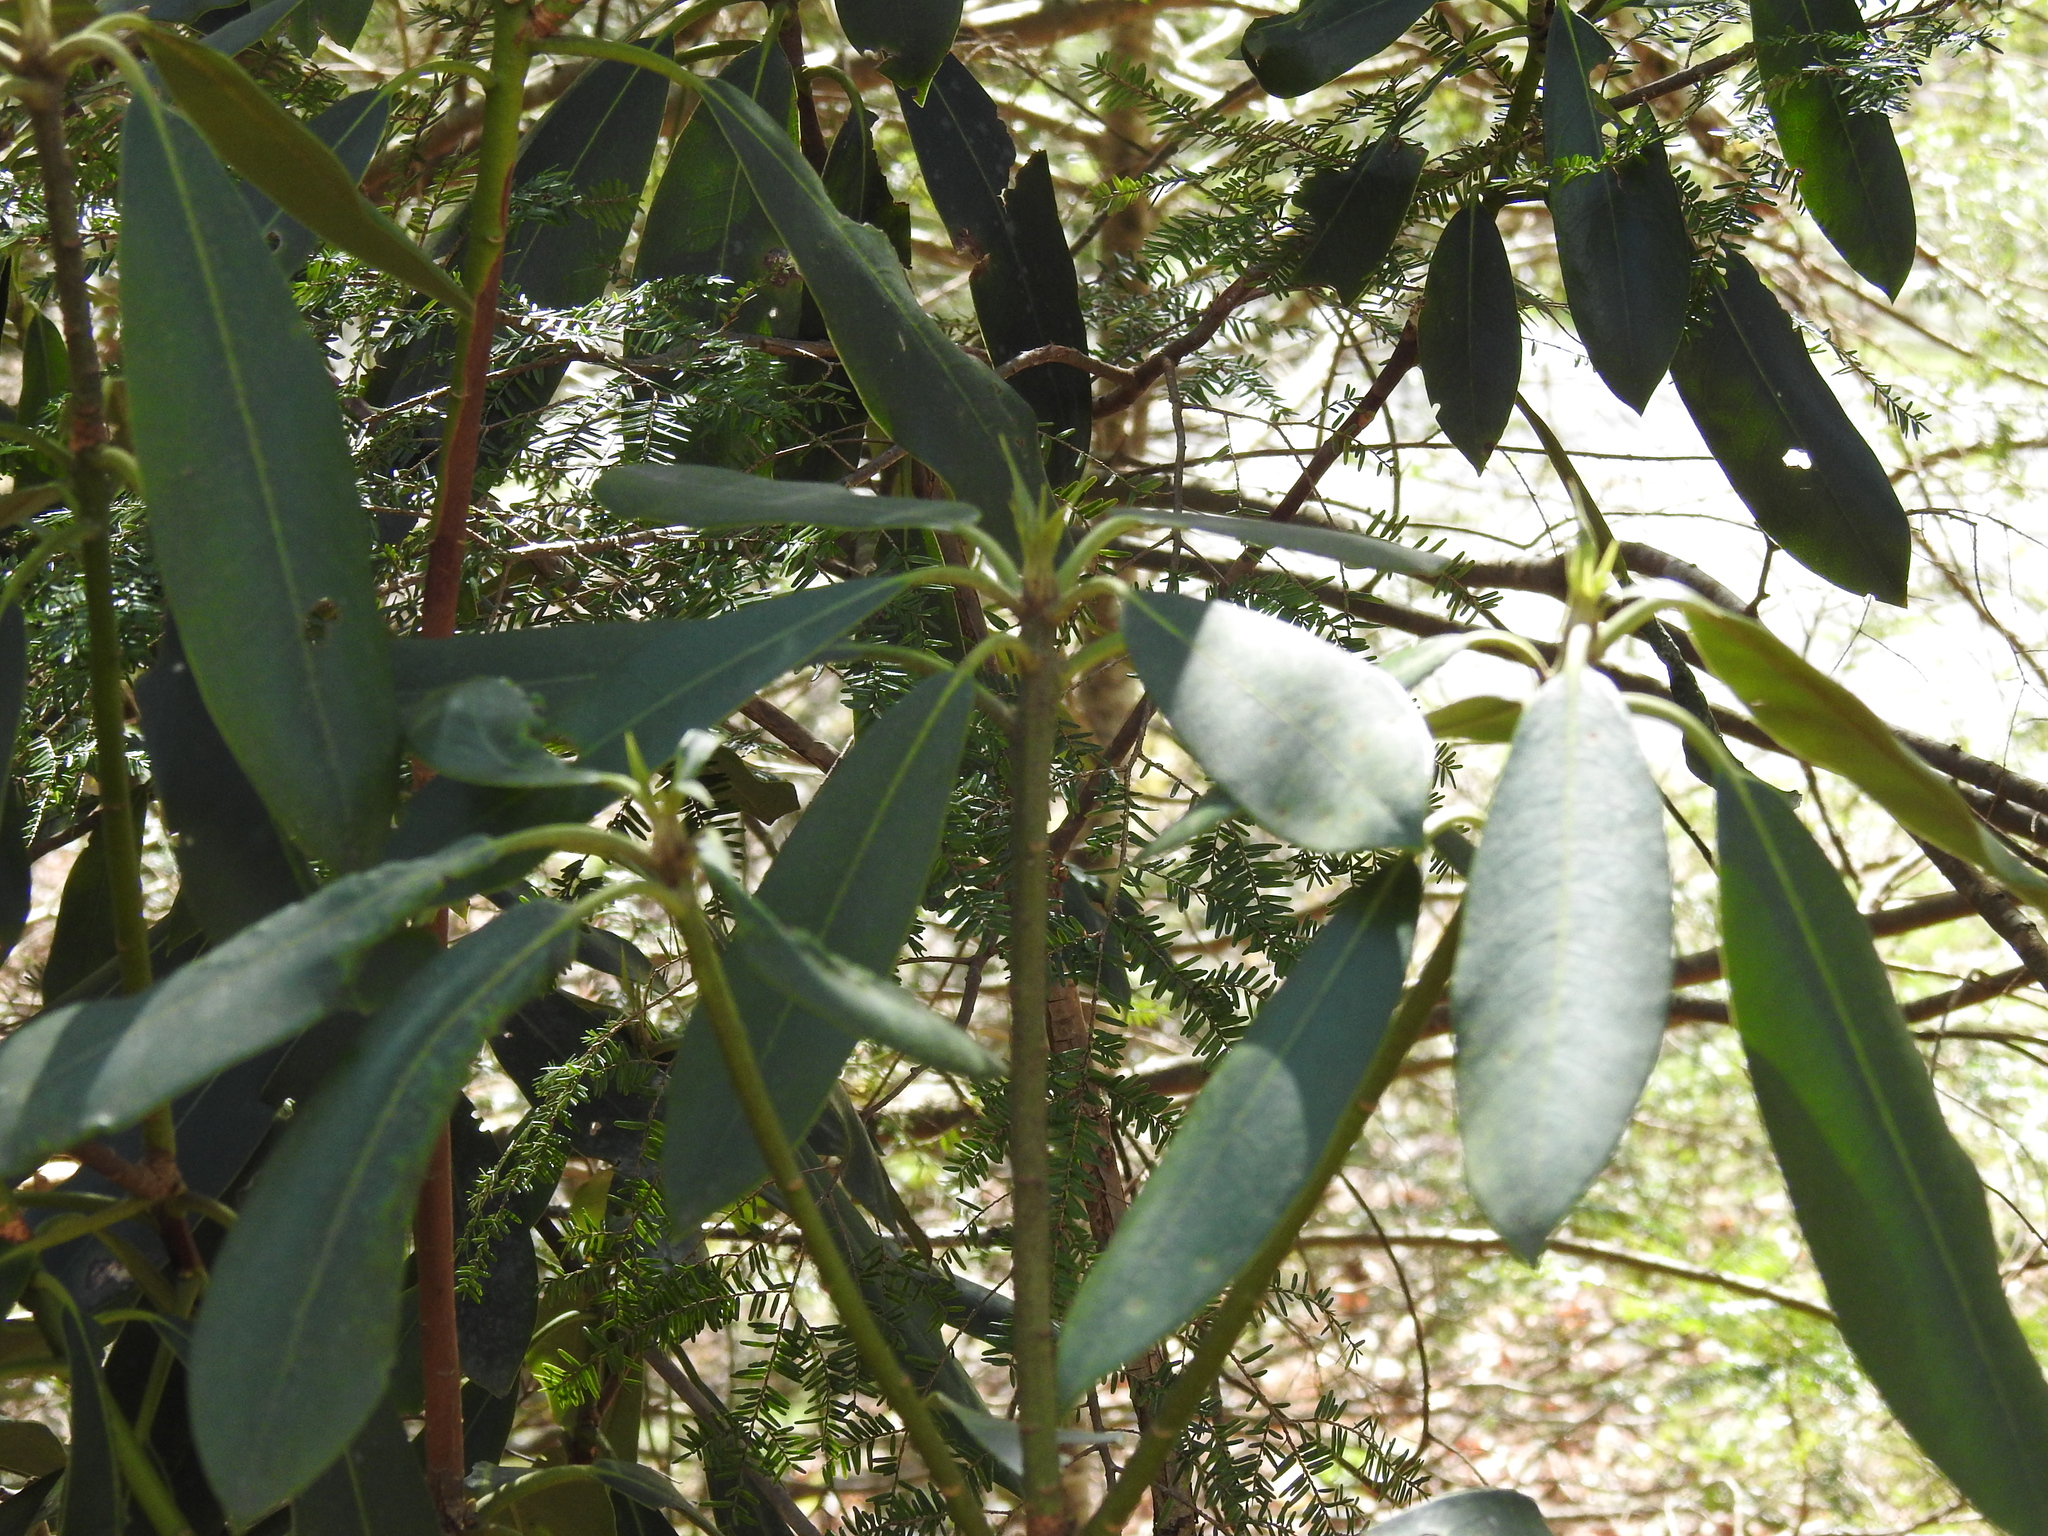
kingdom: Plantae
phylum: Tracheophyta
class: Magnoliopsida
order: Ericales
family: Ericaceae
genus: Rhododendron
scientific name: Rhododendron maximum
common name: Great rhododendron
